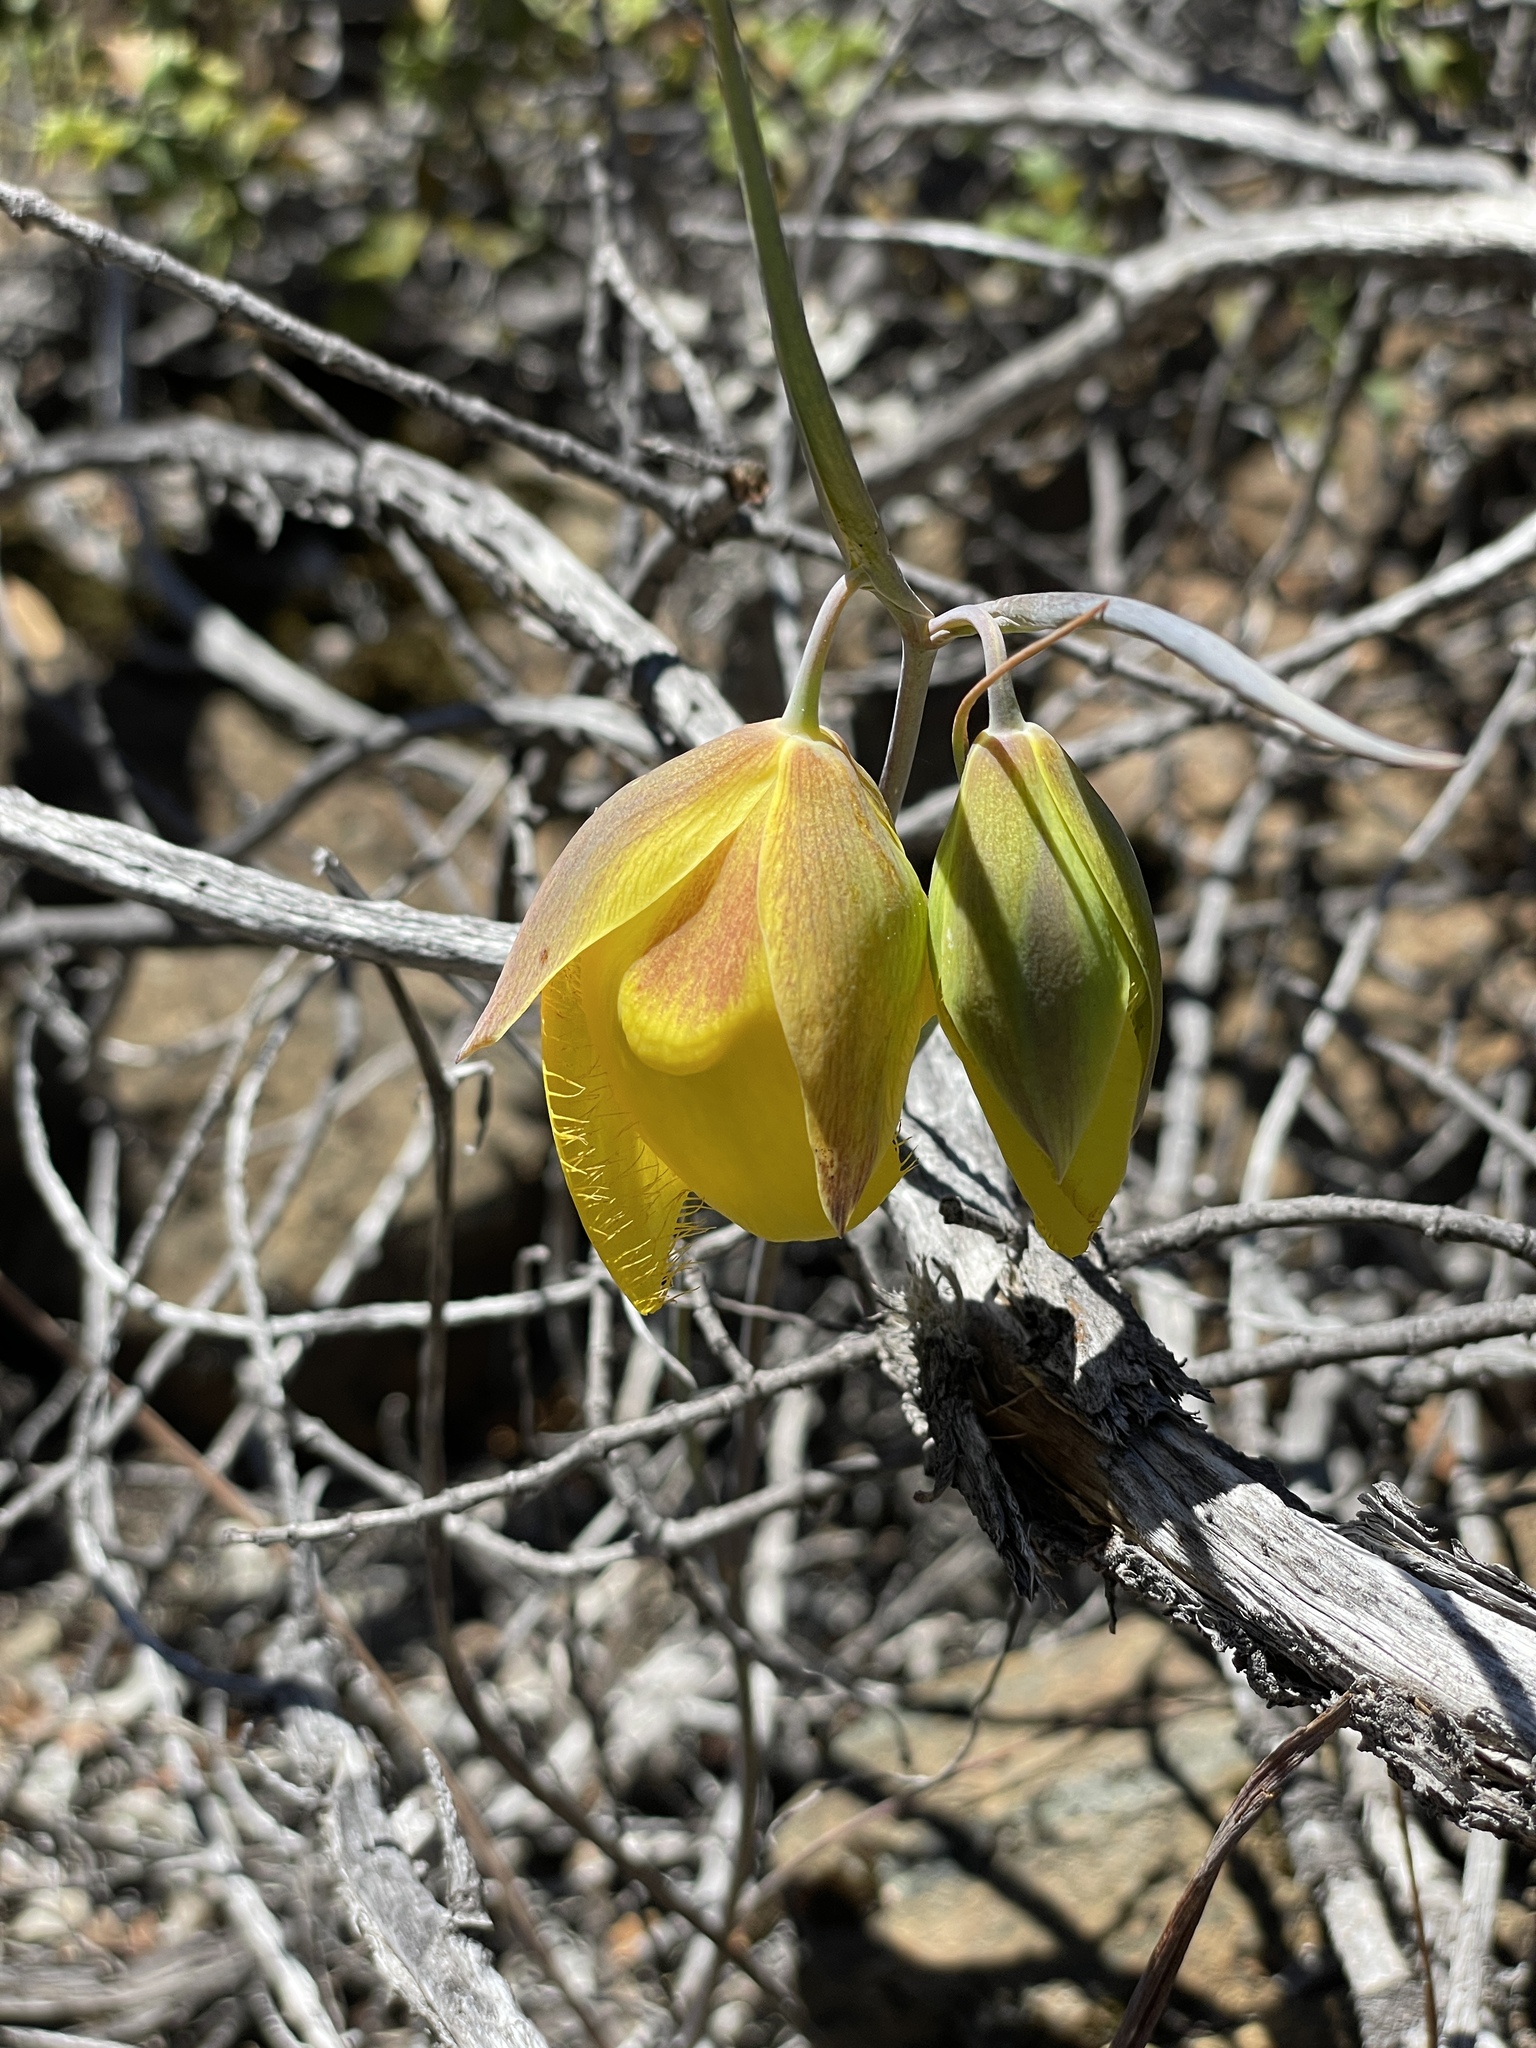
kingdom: Plantae
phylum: Tracheophyta
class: Liliopsida
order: Liliales
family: Liliaceae
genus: Calochortus
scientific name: Calochortus raichei
